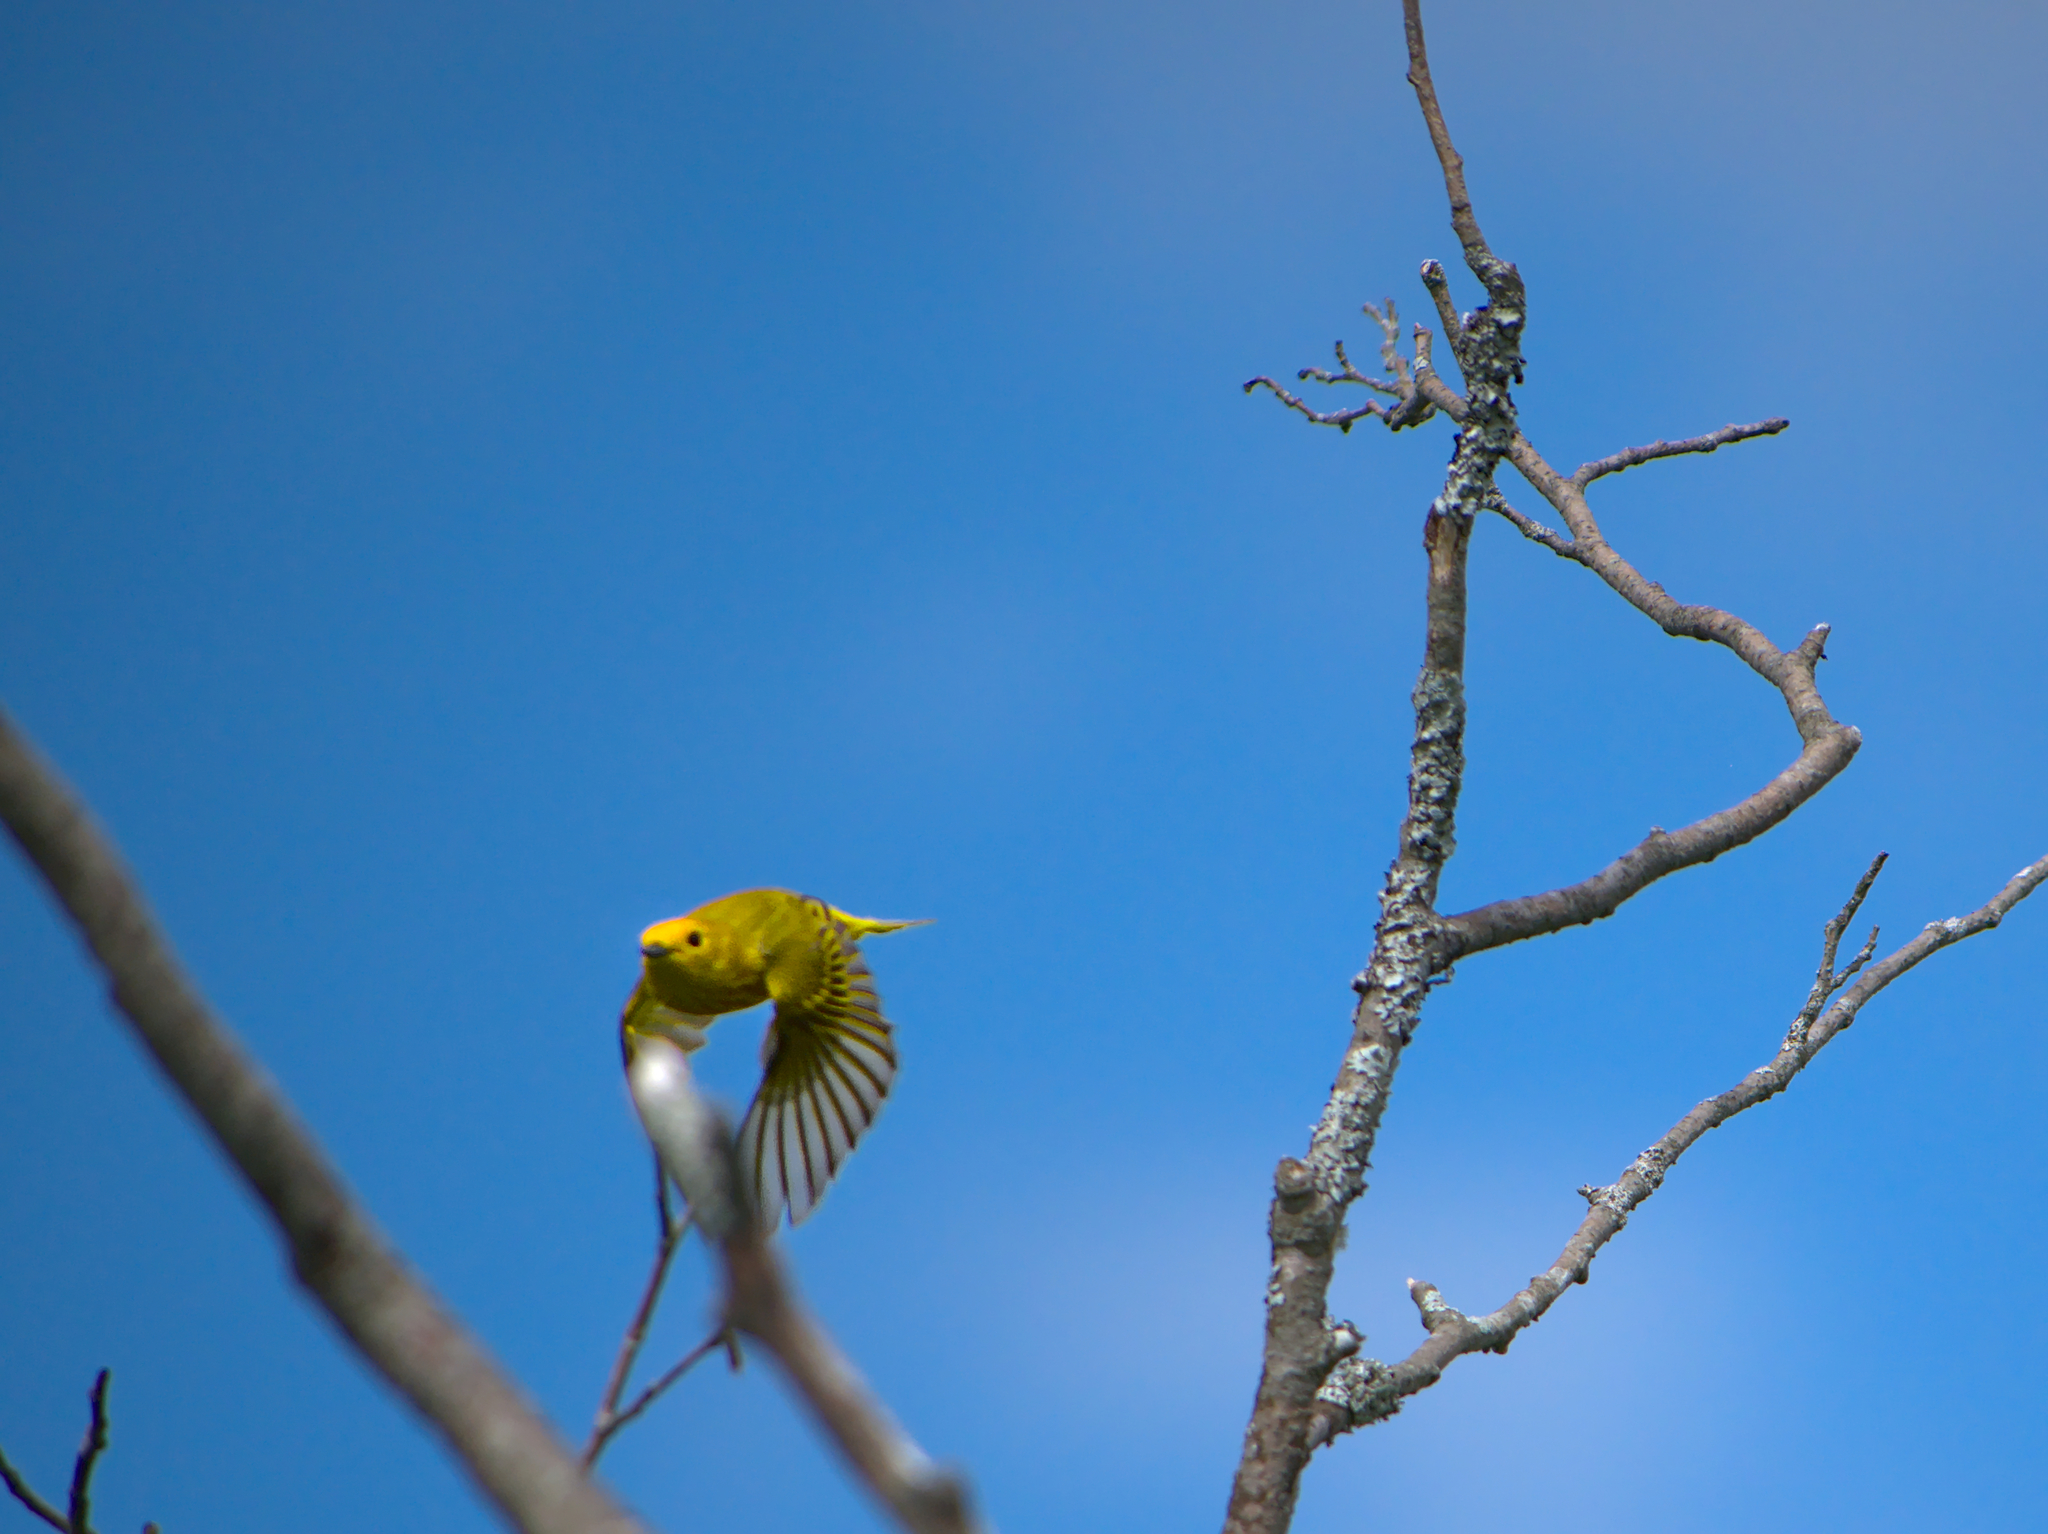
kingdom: Animalia
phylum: Chordata
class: Aves
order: Passeriformes
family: Parulidae
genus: Setophaga
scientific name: Setophaga petechia
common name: Yellow warbler
